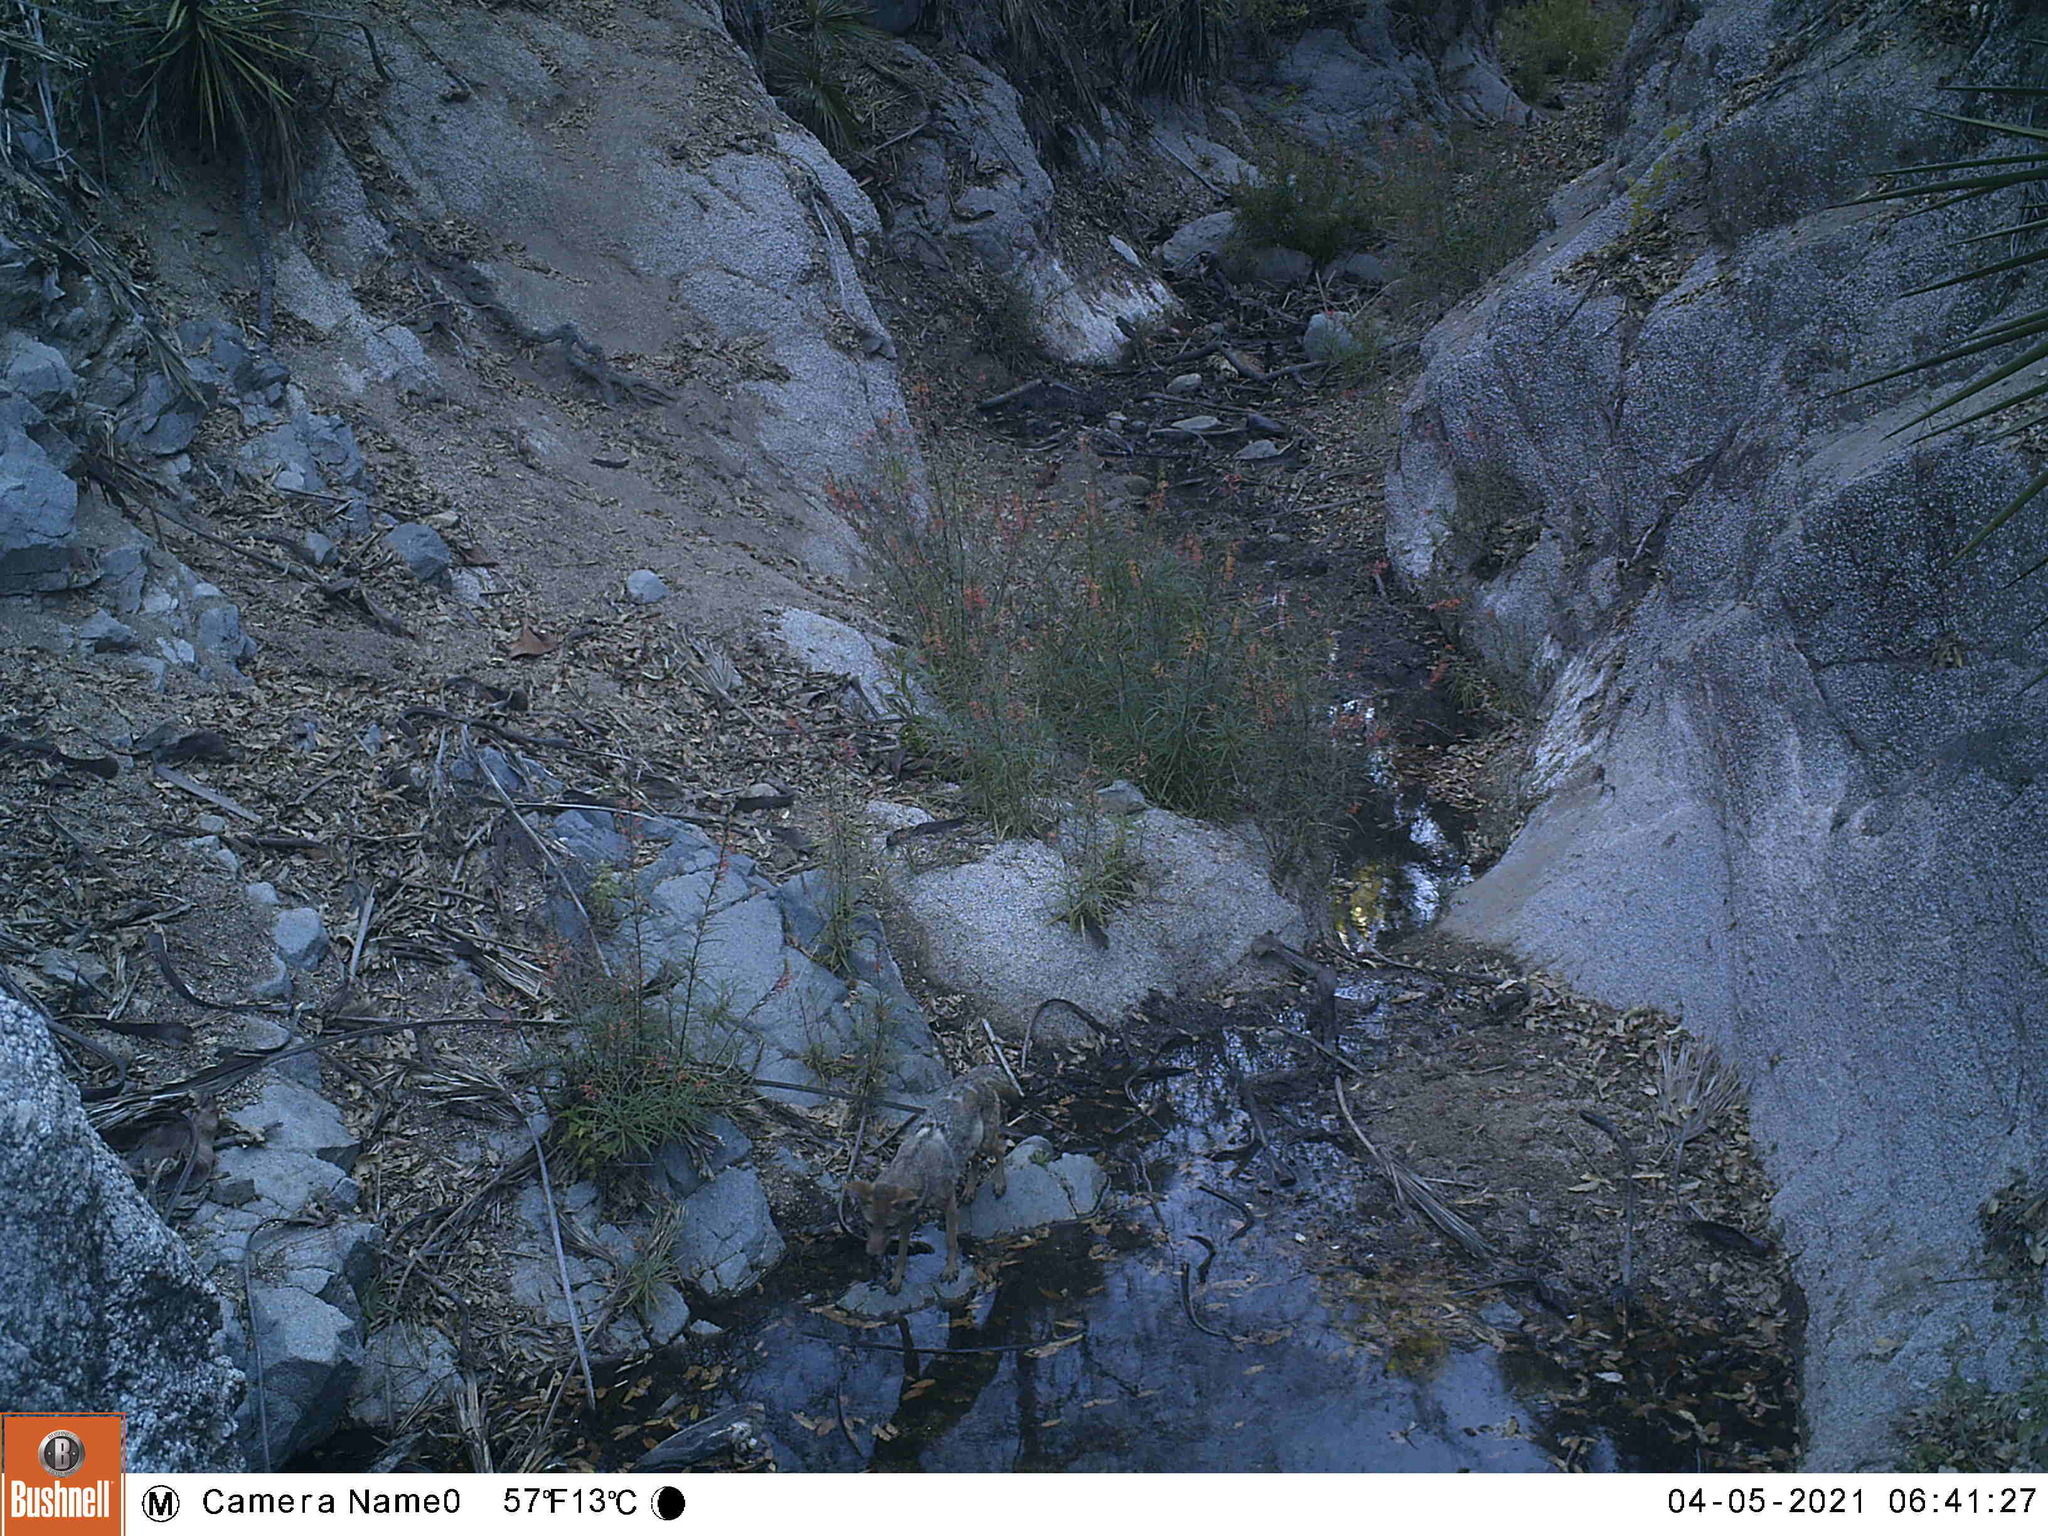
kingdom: Animalia
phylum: Chordata
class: Mammalia
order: Carnivora
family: Canidae
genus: Canis
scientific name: Canis latrans
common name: Coyote
